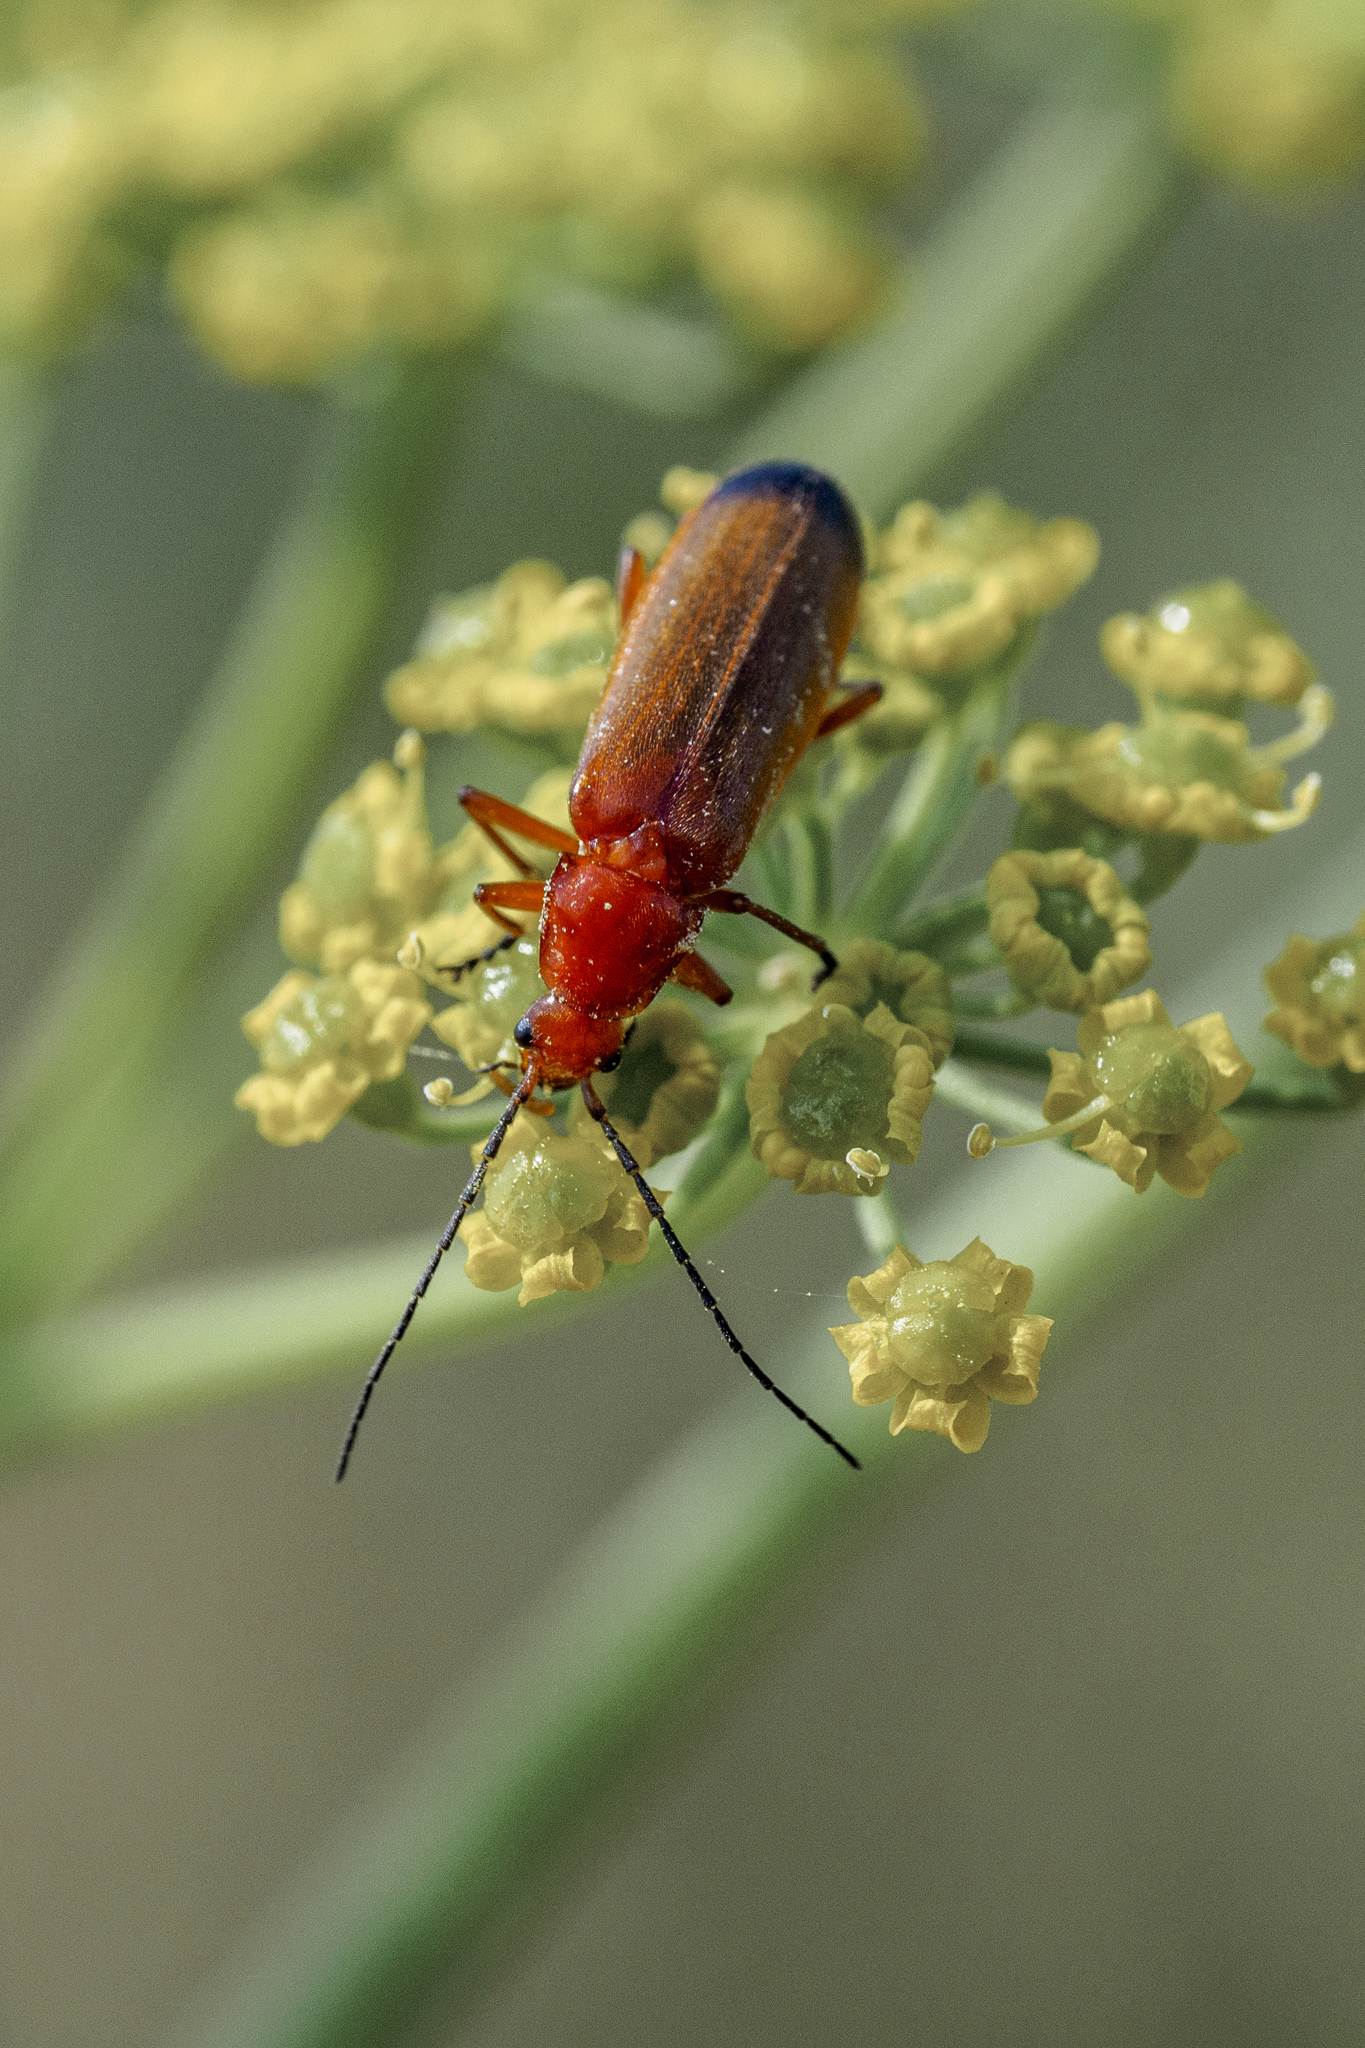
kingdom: Animalia
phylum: Arthropoda
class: Insecta
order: Coleoptera
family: Cantharidae
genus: Rhagonycha
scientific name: Rhagonycha fulva
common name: Common red soldier beetle
